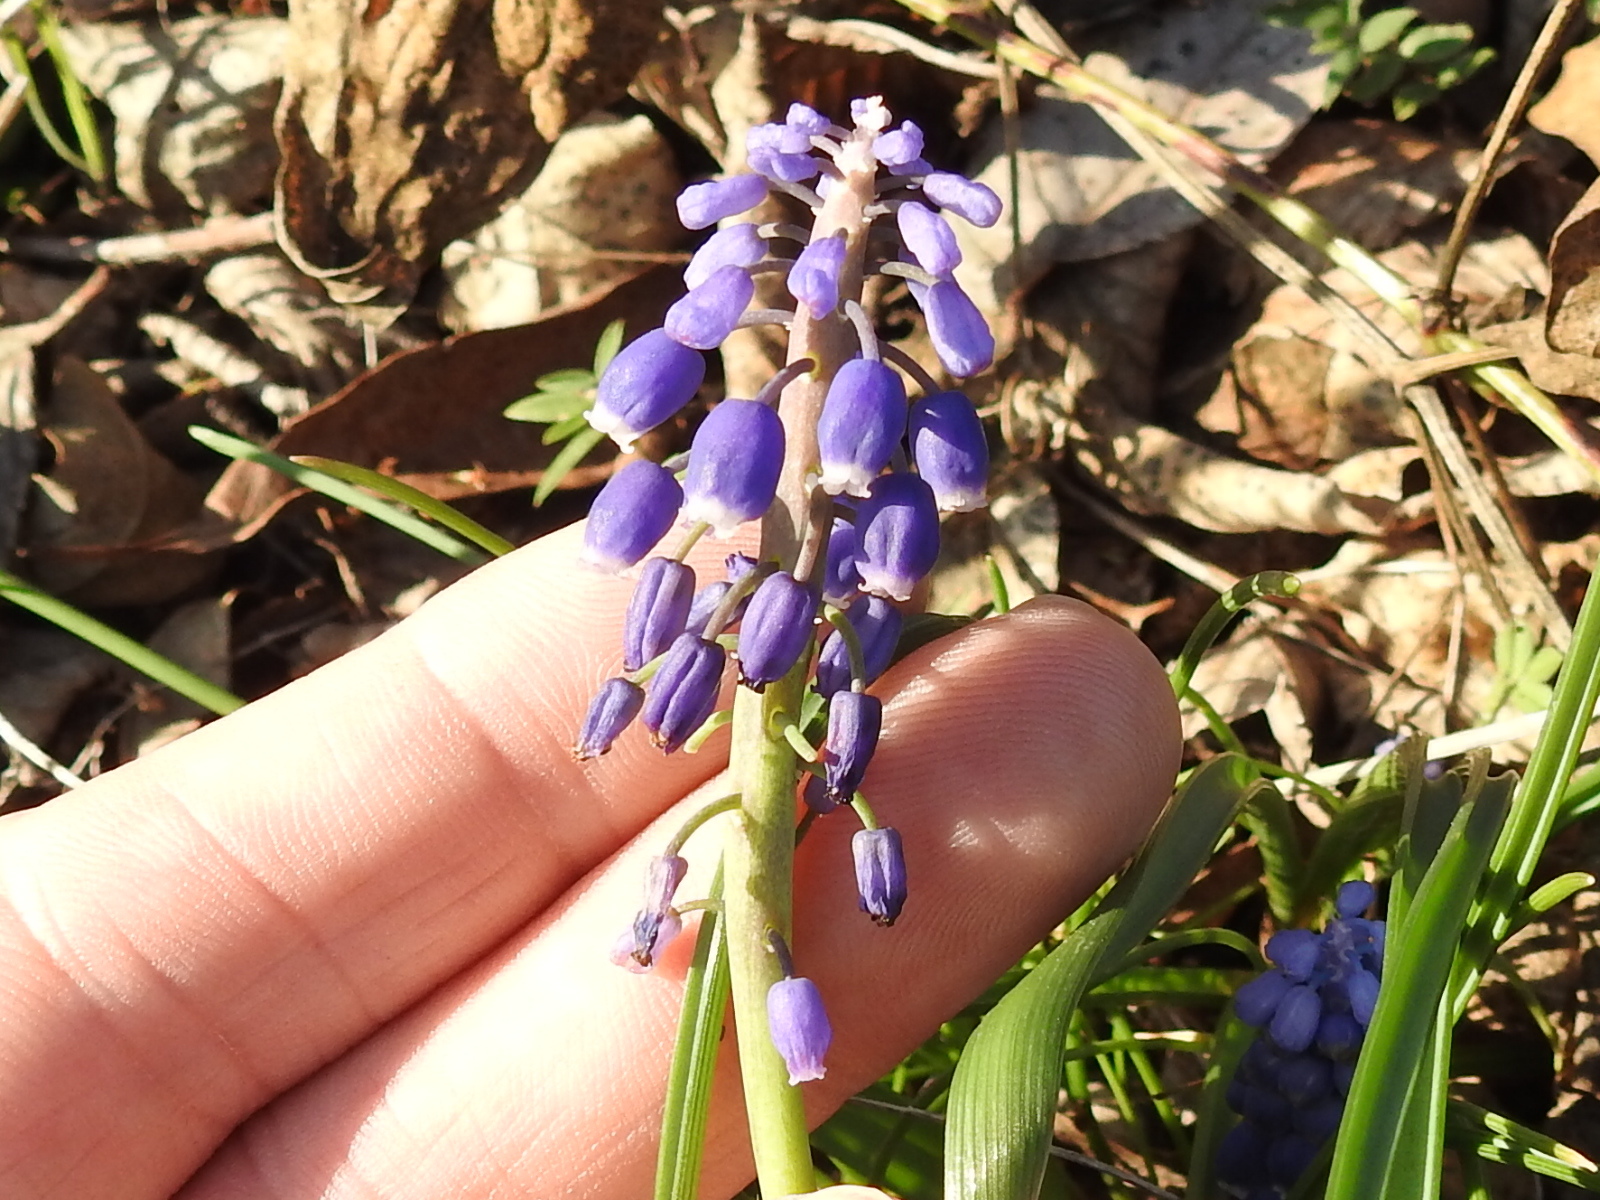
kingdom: Plantae
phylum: Tracheophyta
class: Liliopsida
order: Asparagales
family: Asparagaceae
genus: Muscari
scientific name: Muscari neglectum
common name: Grape-hyacinth
